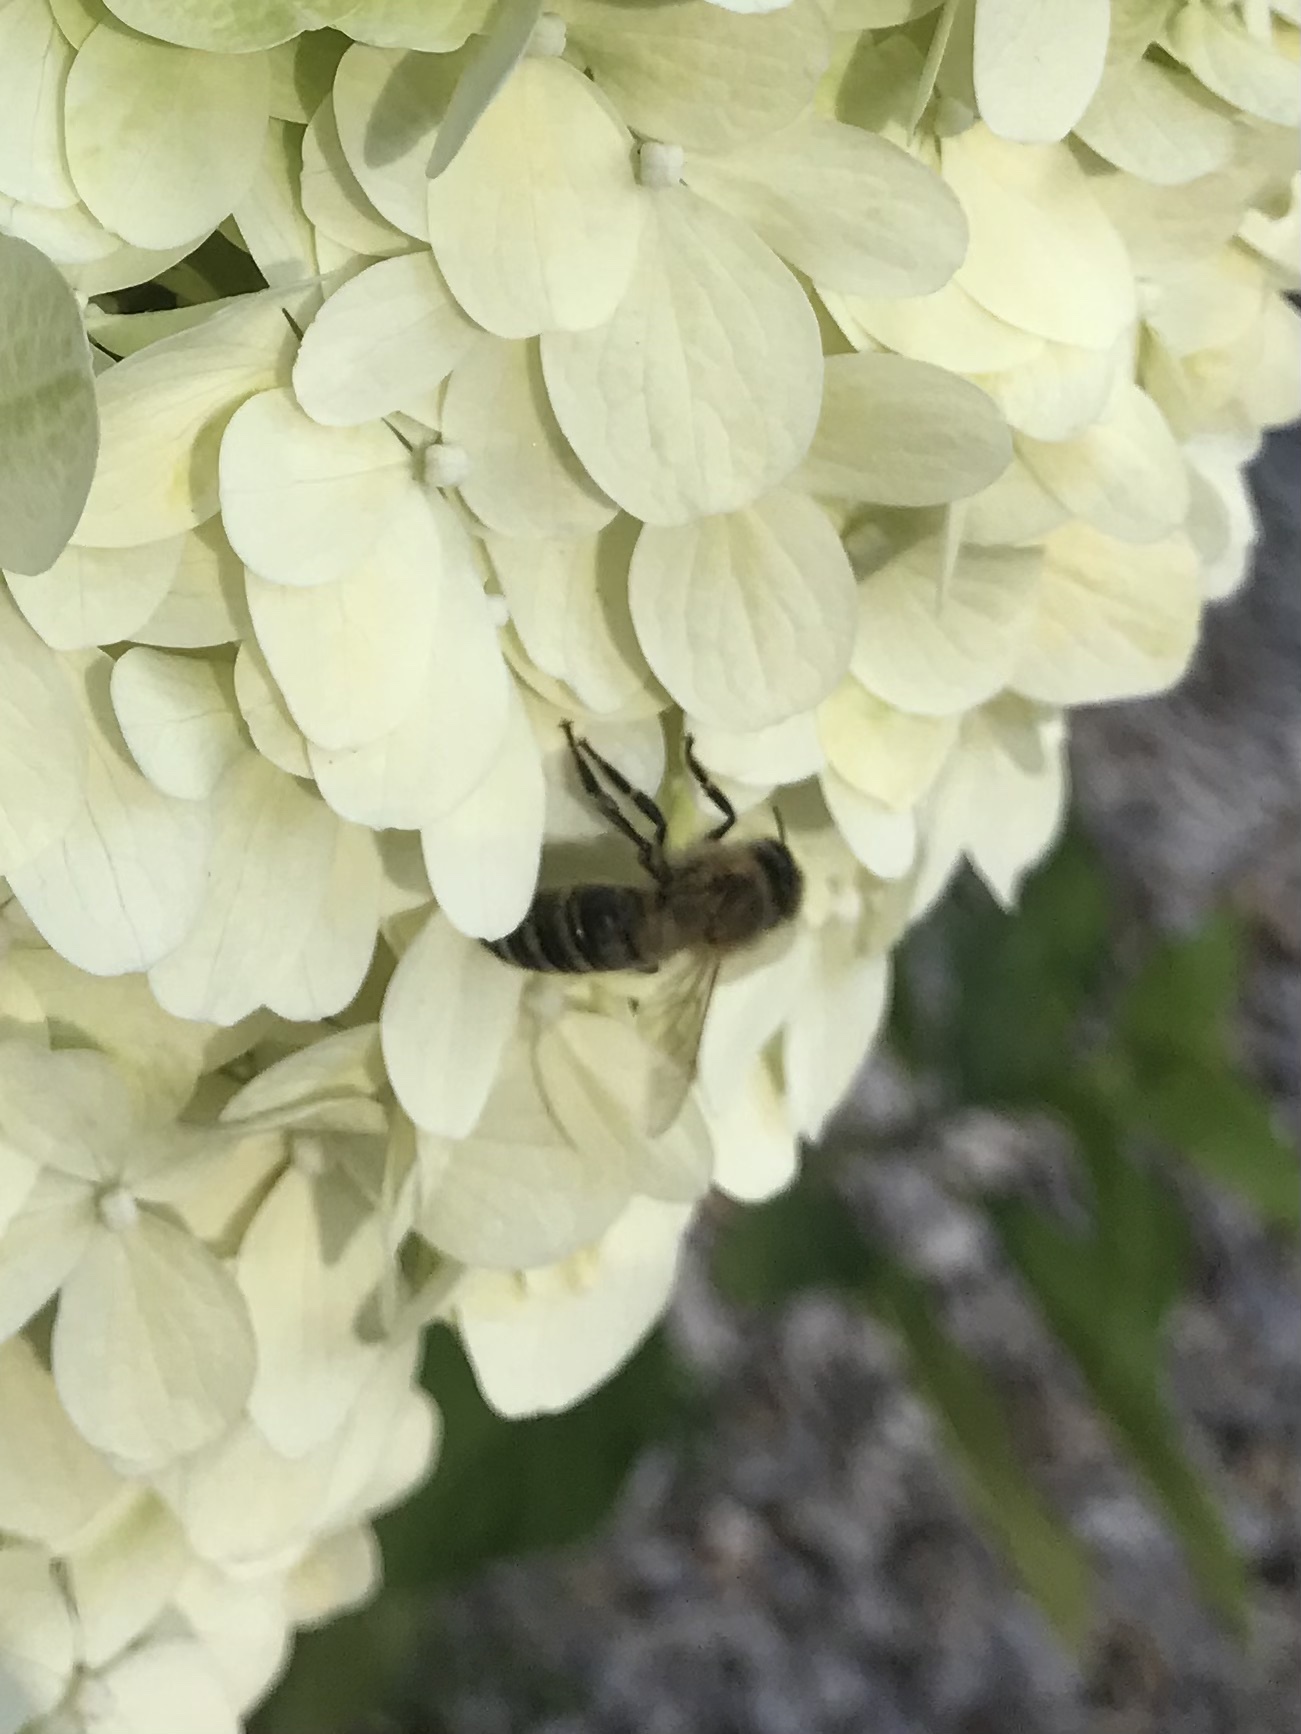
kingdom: Animalia
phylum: Arthropoda
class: Insecta
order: Hymenoptera
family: Apidae
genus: Apis
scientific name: Apis mellifera
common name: Honey bee
